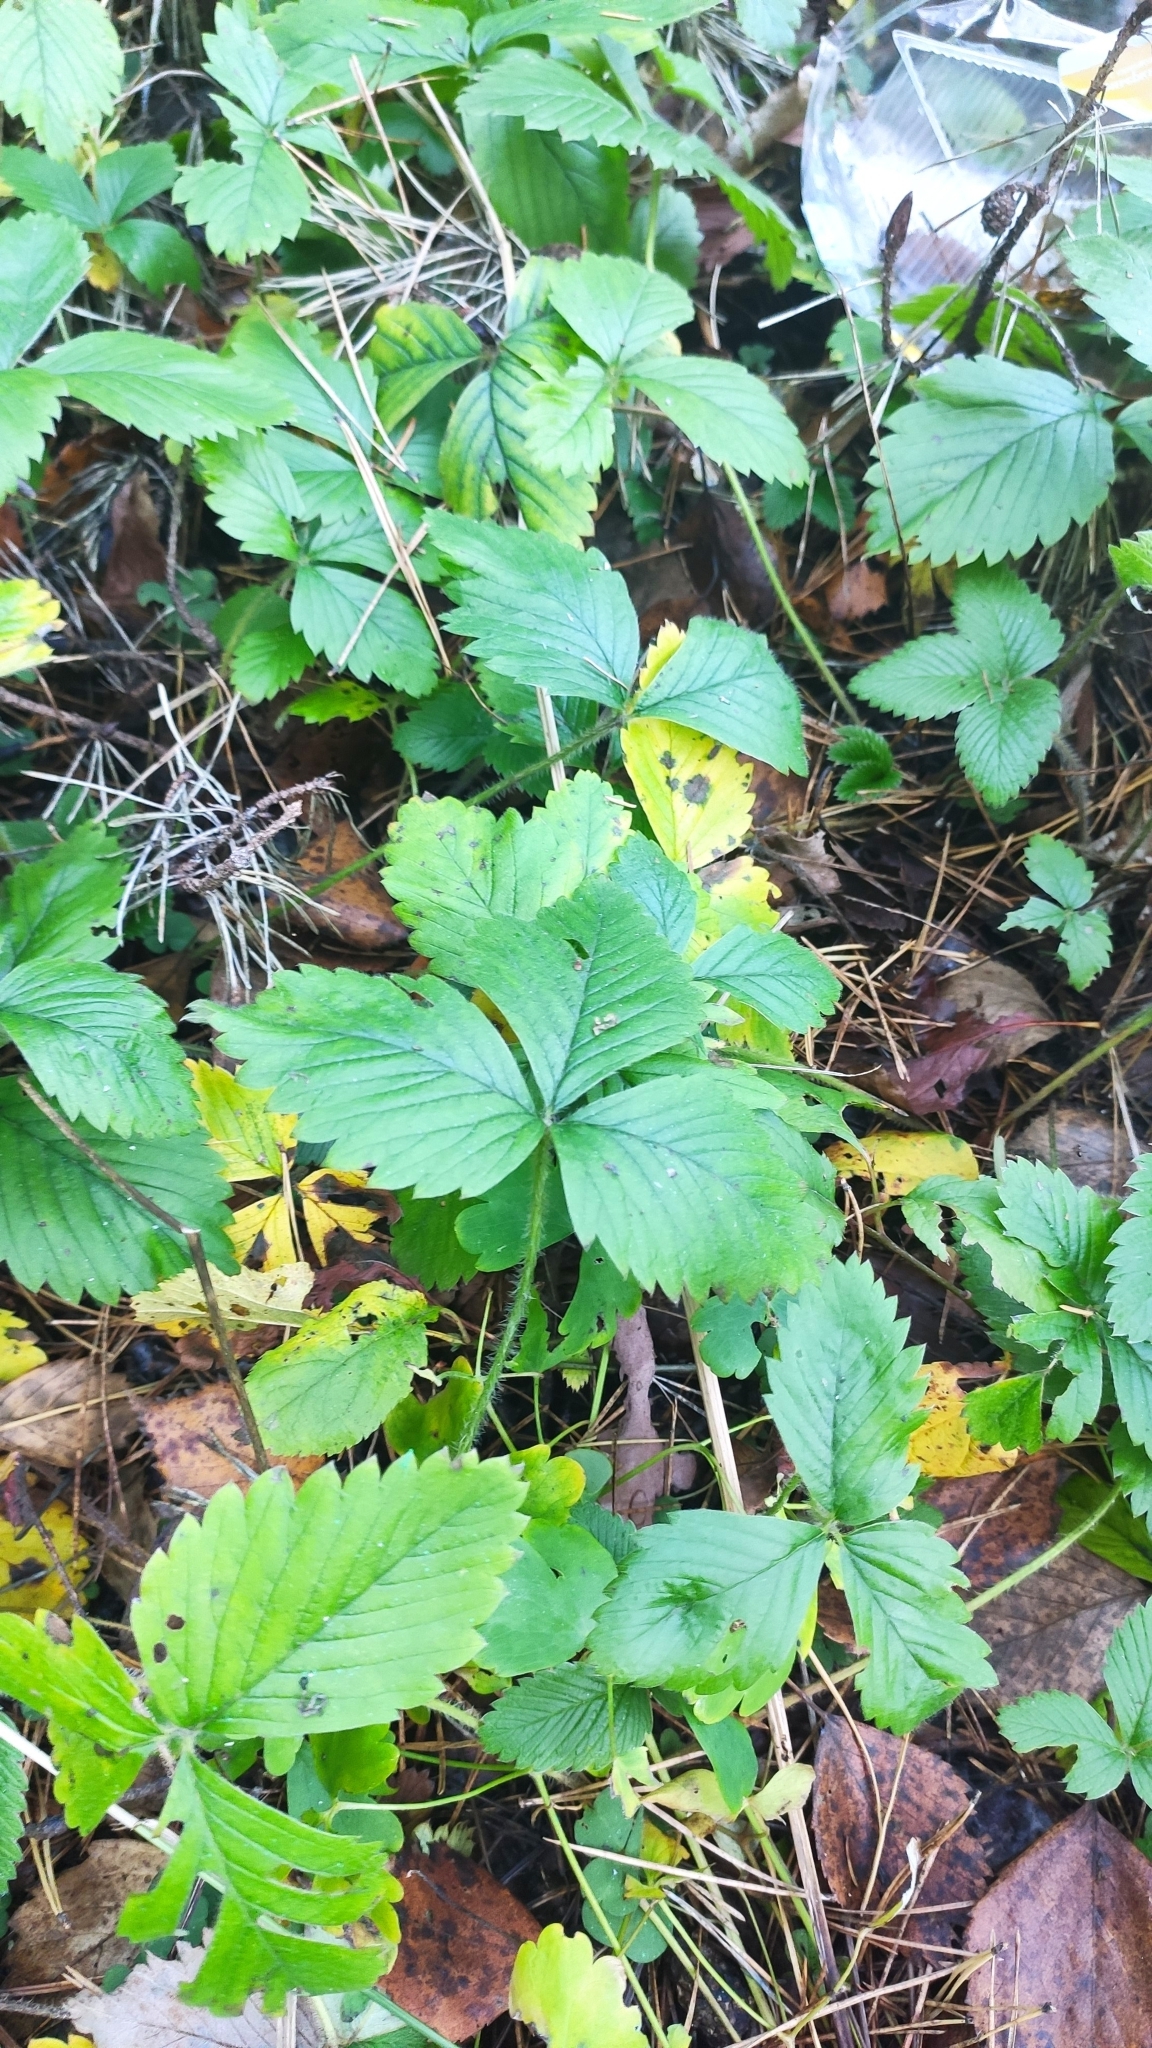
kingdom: Plantae
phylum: Tracheophyta
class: Magnoliopsida
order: Rosales
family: Rosaceae
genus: Fragaria
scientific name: Fragaria vesca
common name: Wild strawberry
